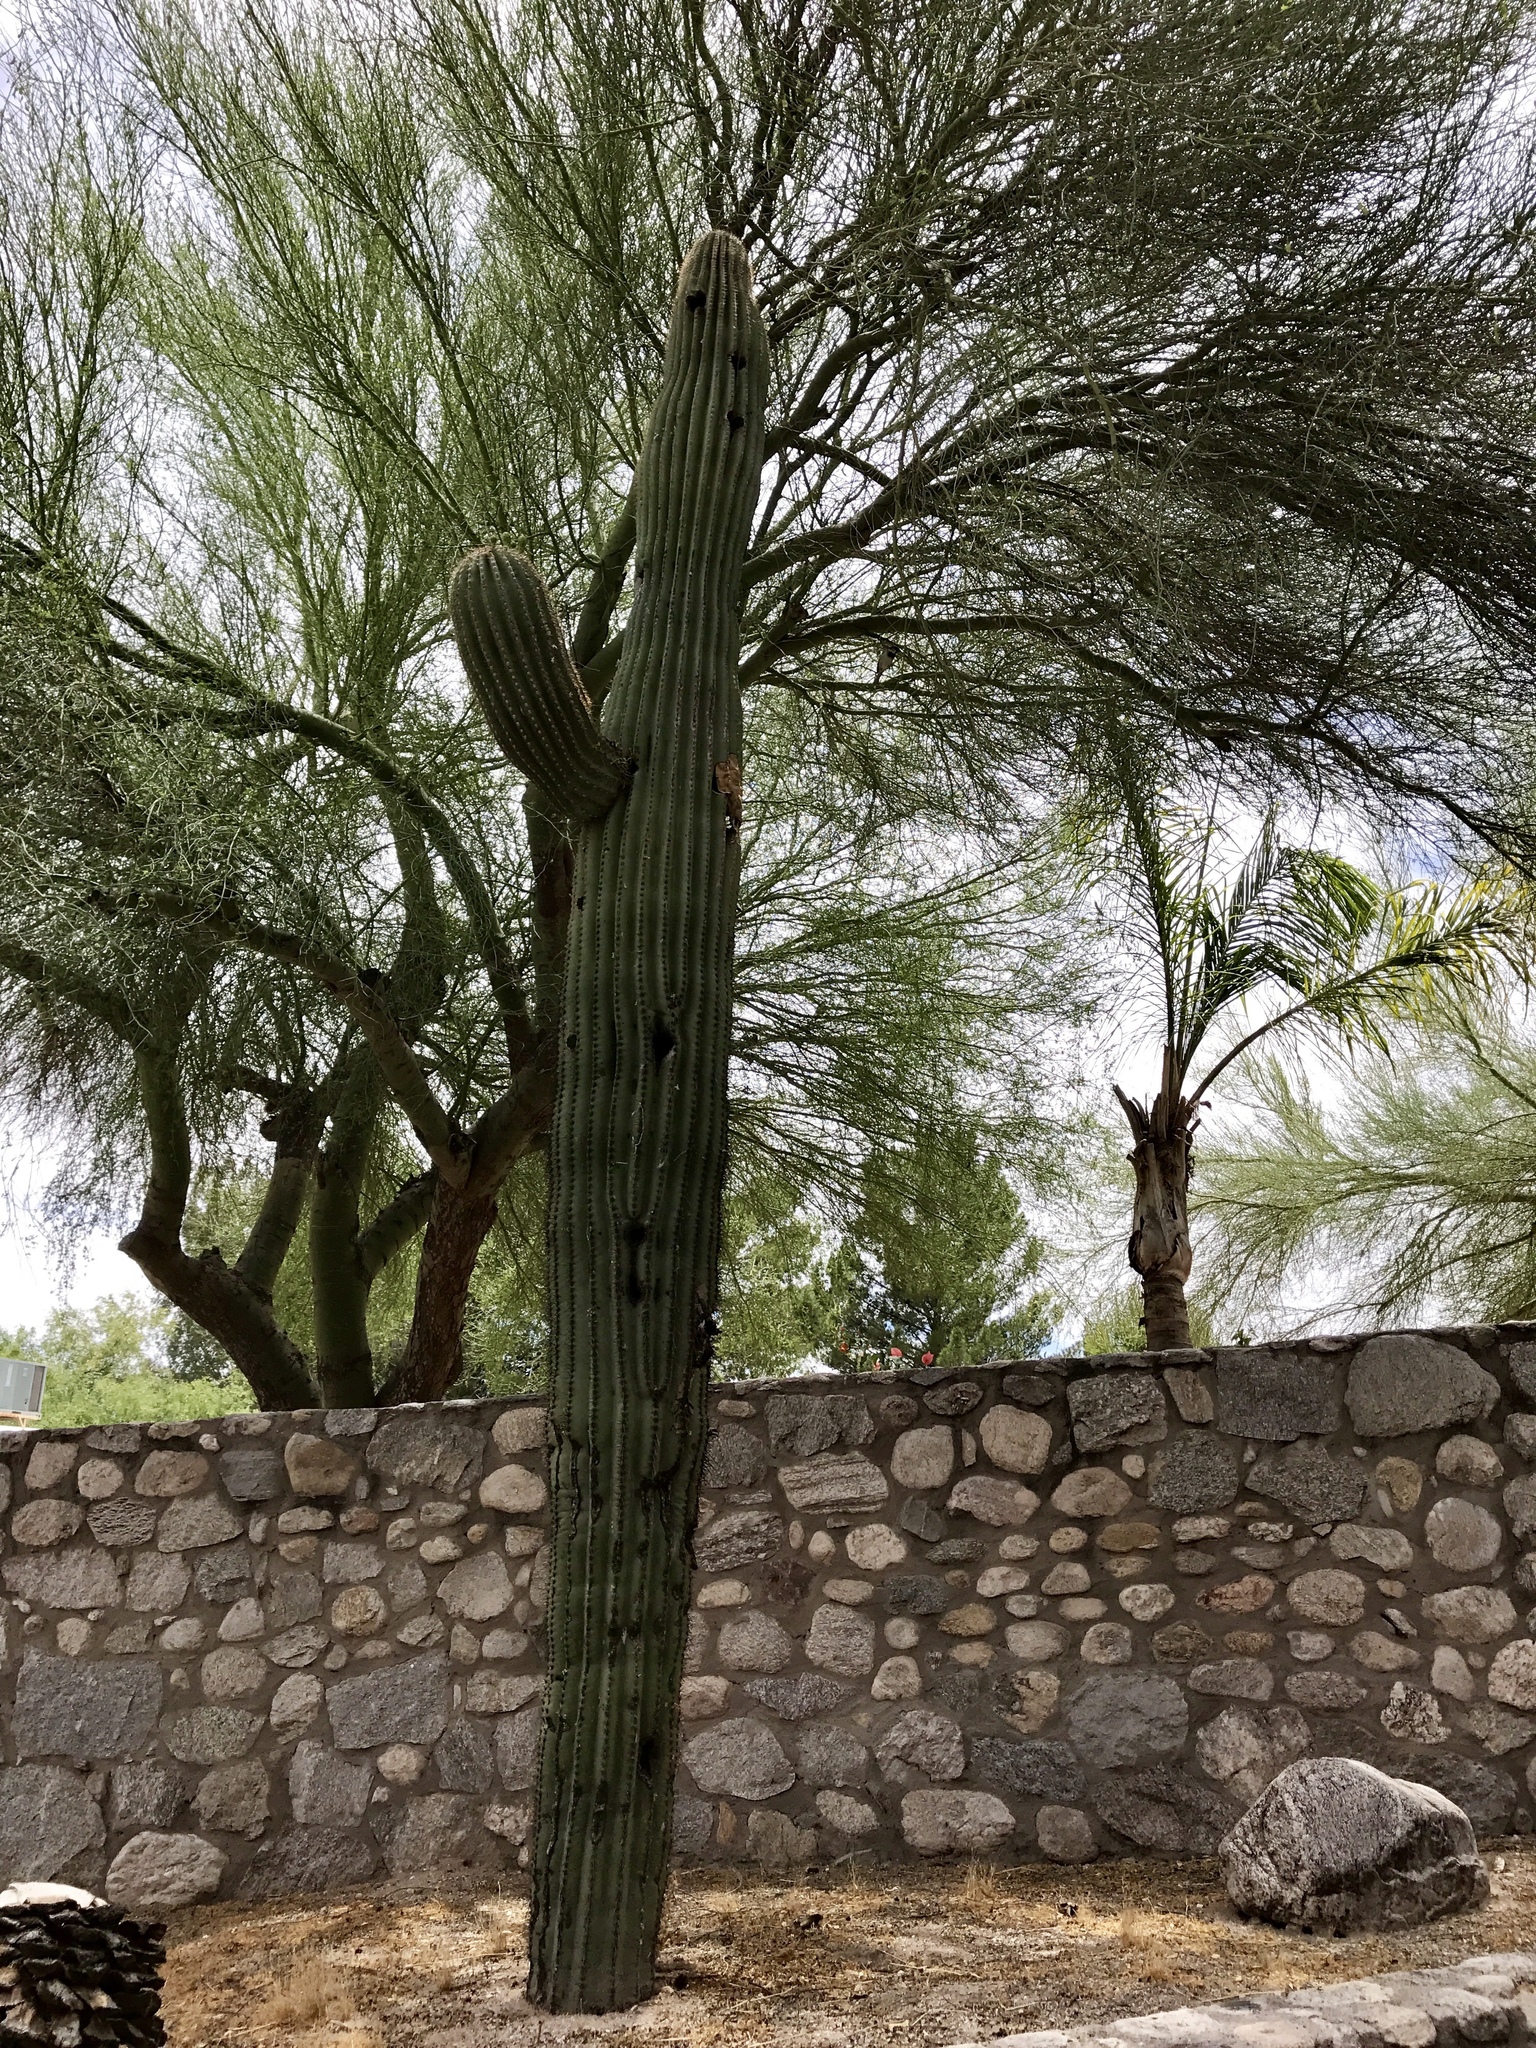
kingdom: Plantae
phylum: Tracheophyta
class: Magnoliopsida
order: Caryophyllales
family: Cactaceae
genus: Carnegiea
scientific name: Carnegiea gigantea
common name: Saguaro
